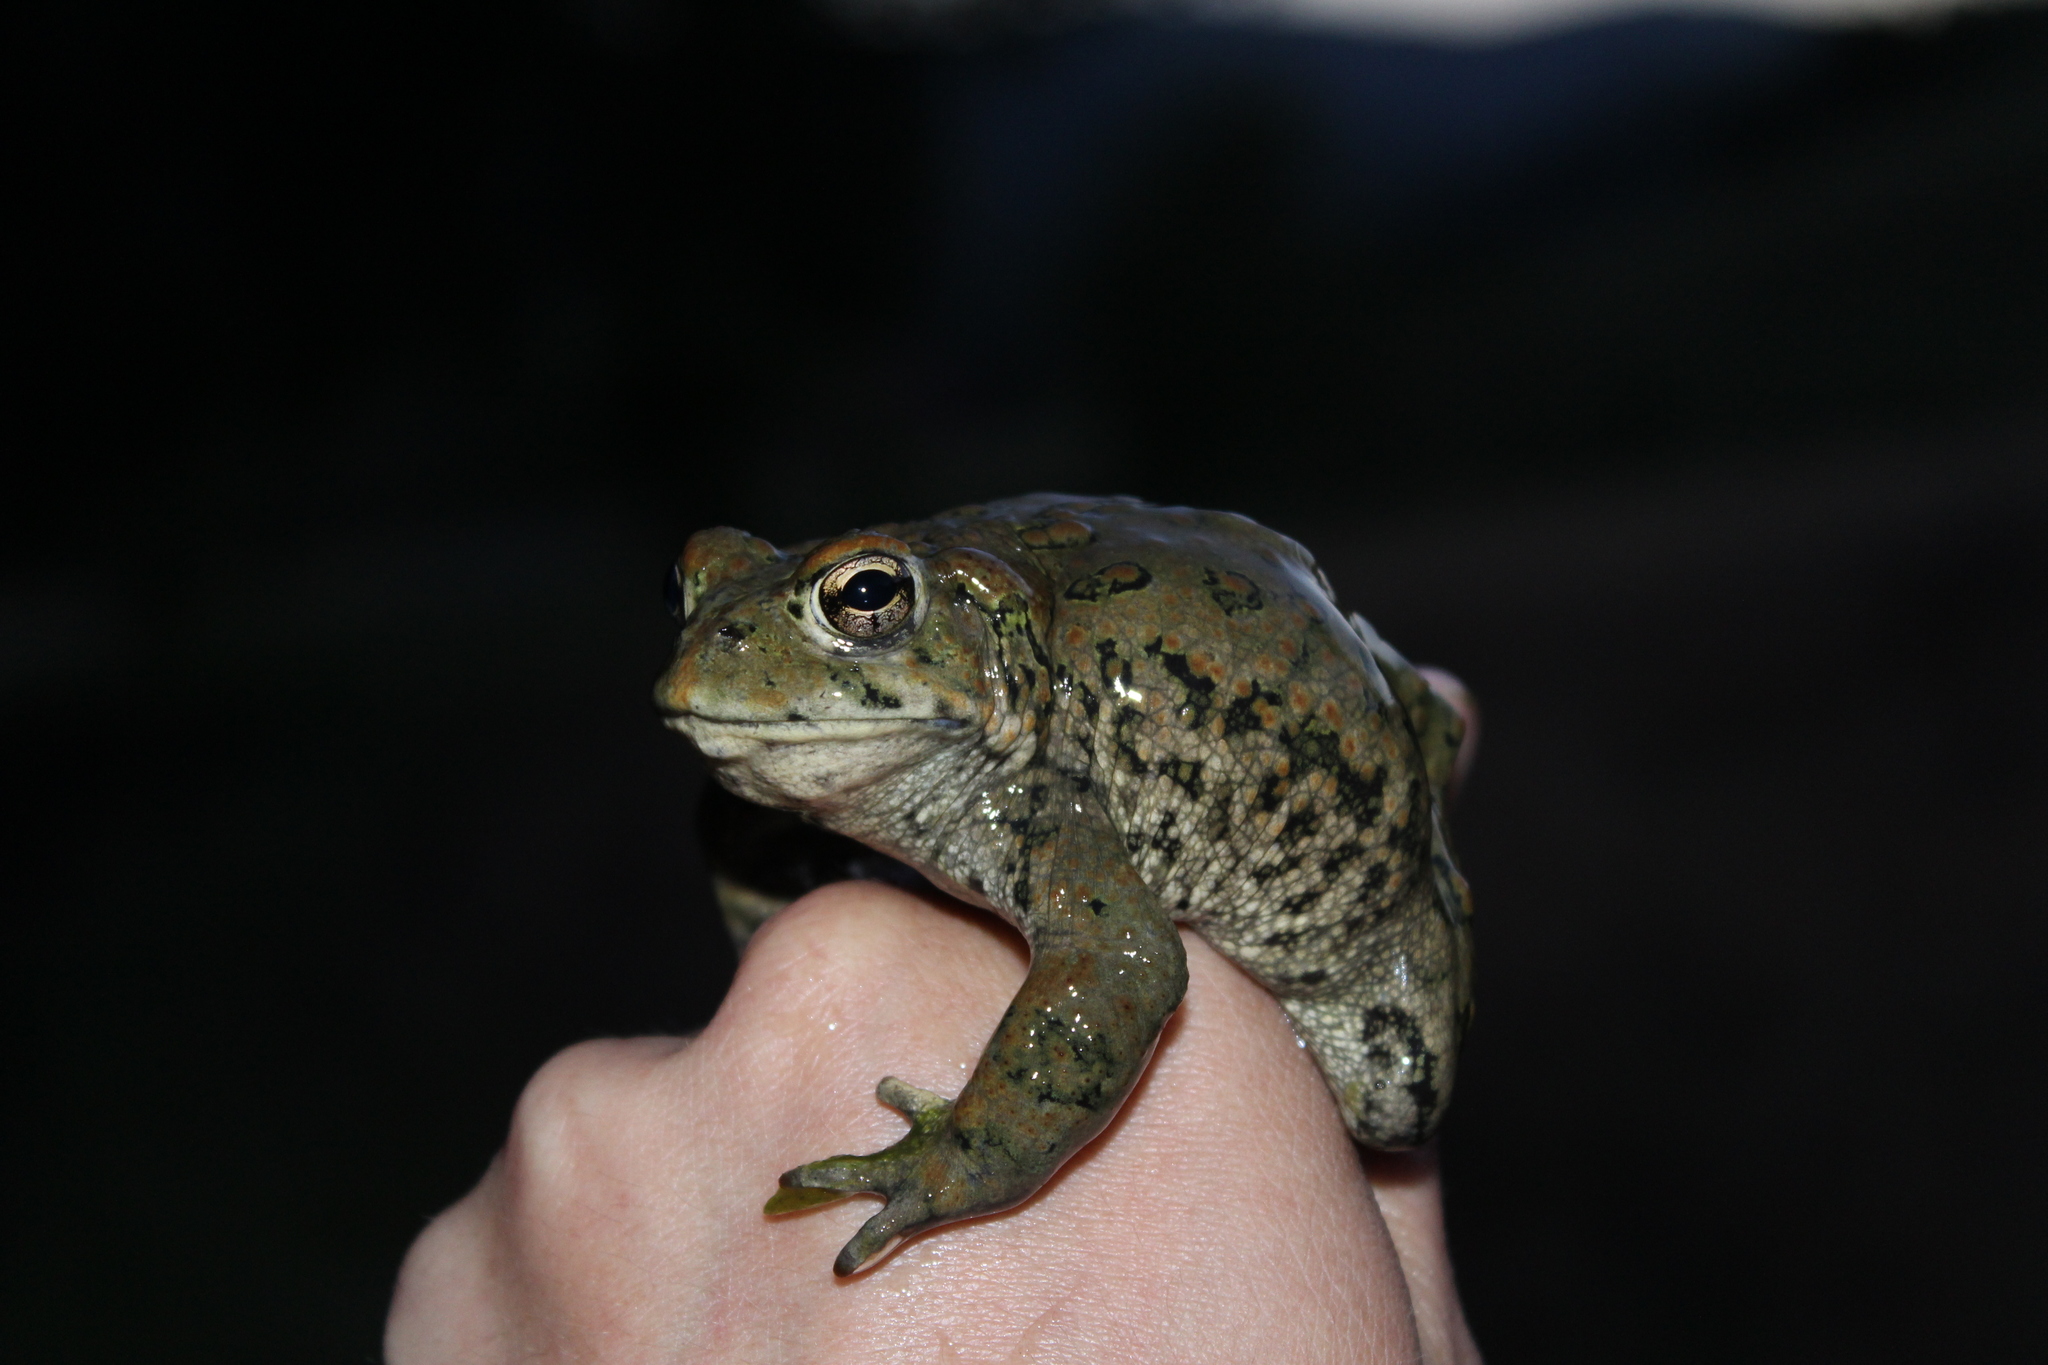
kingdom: Animalia
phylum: Chordata
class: Amphibia
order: Anura
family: Bufonidae
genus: Anaxyrus
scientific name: Anaxyrus boreas
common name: Western toad
